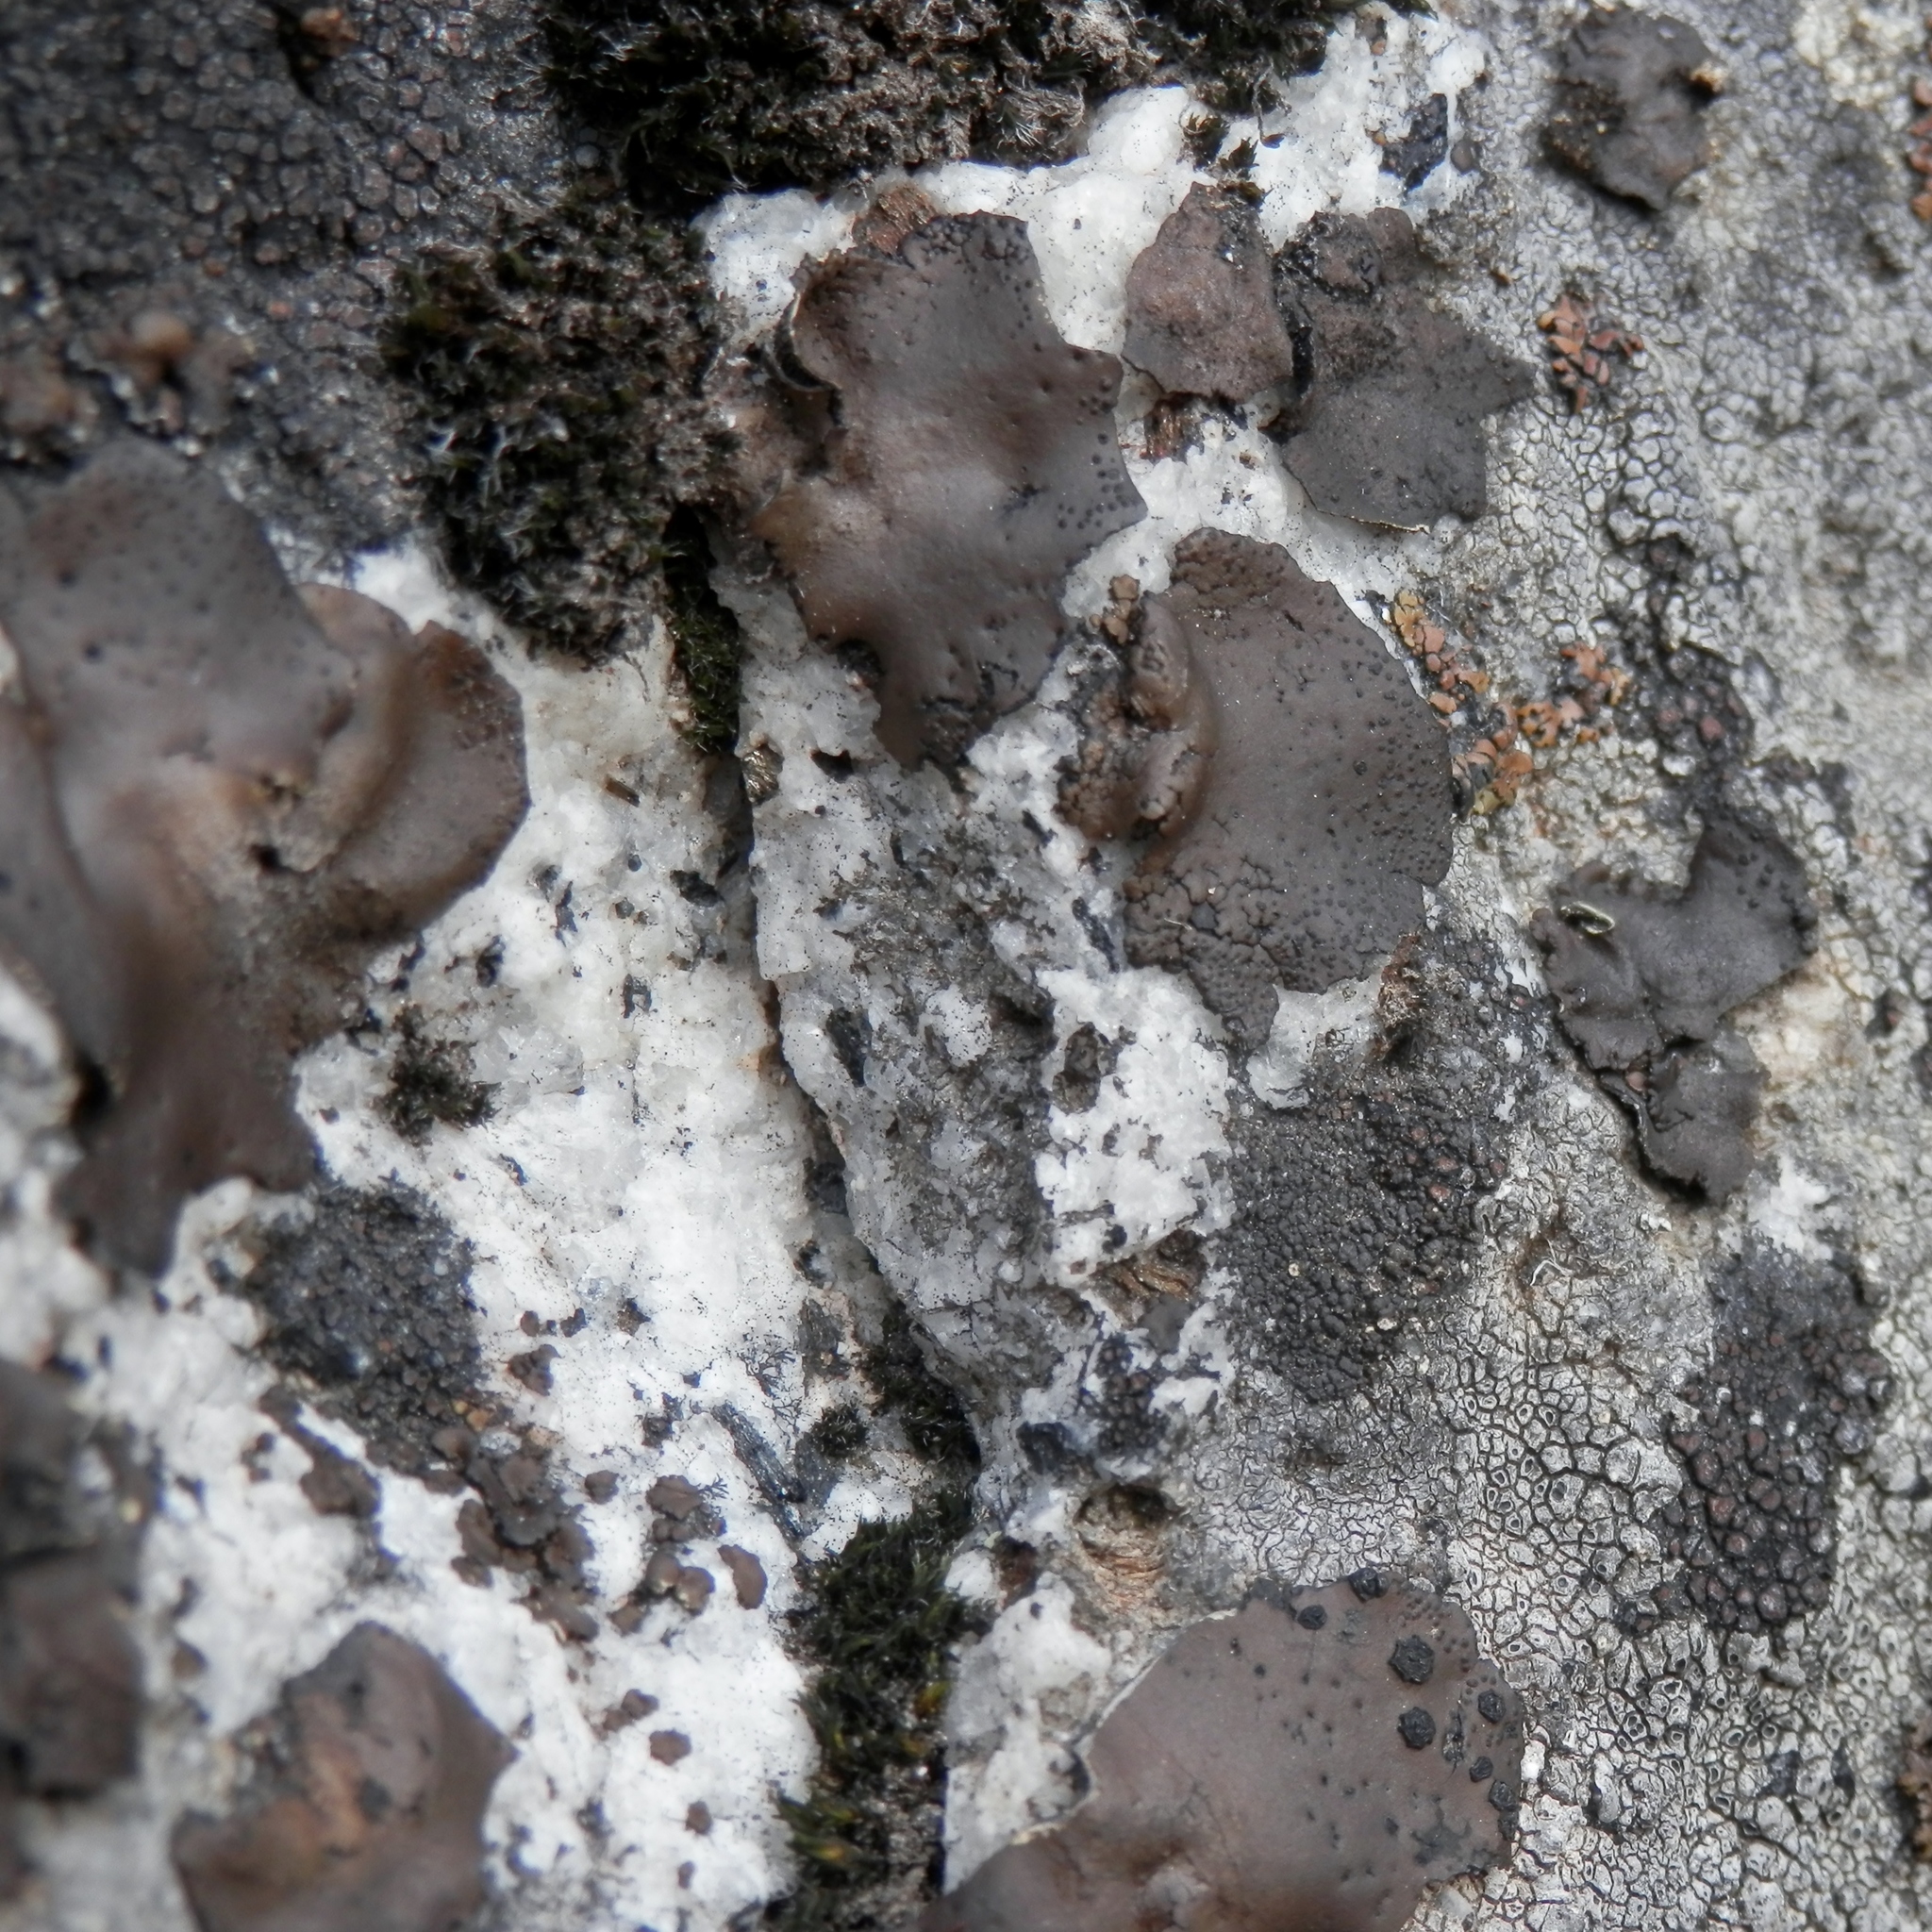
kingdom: Fungi
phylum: Ascomycota
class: Lecanoromycetes
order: Umbilicariales
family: Umbilicariaceae
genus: Umbilicaria
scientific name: Umbilicaria phaea
